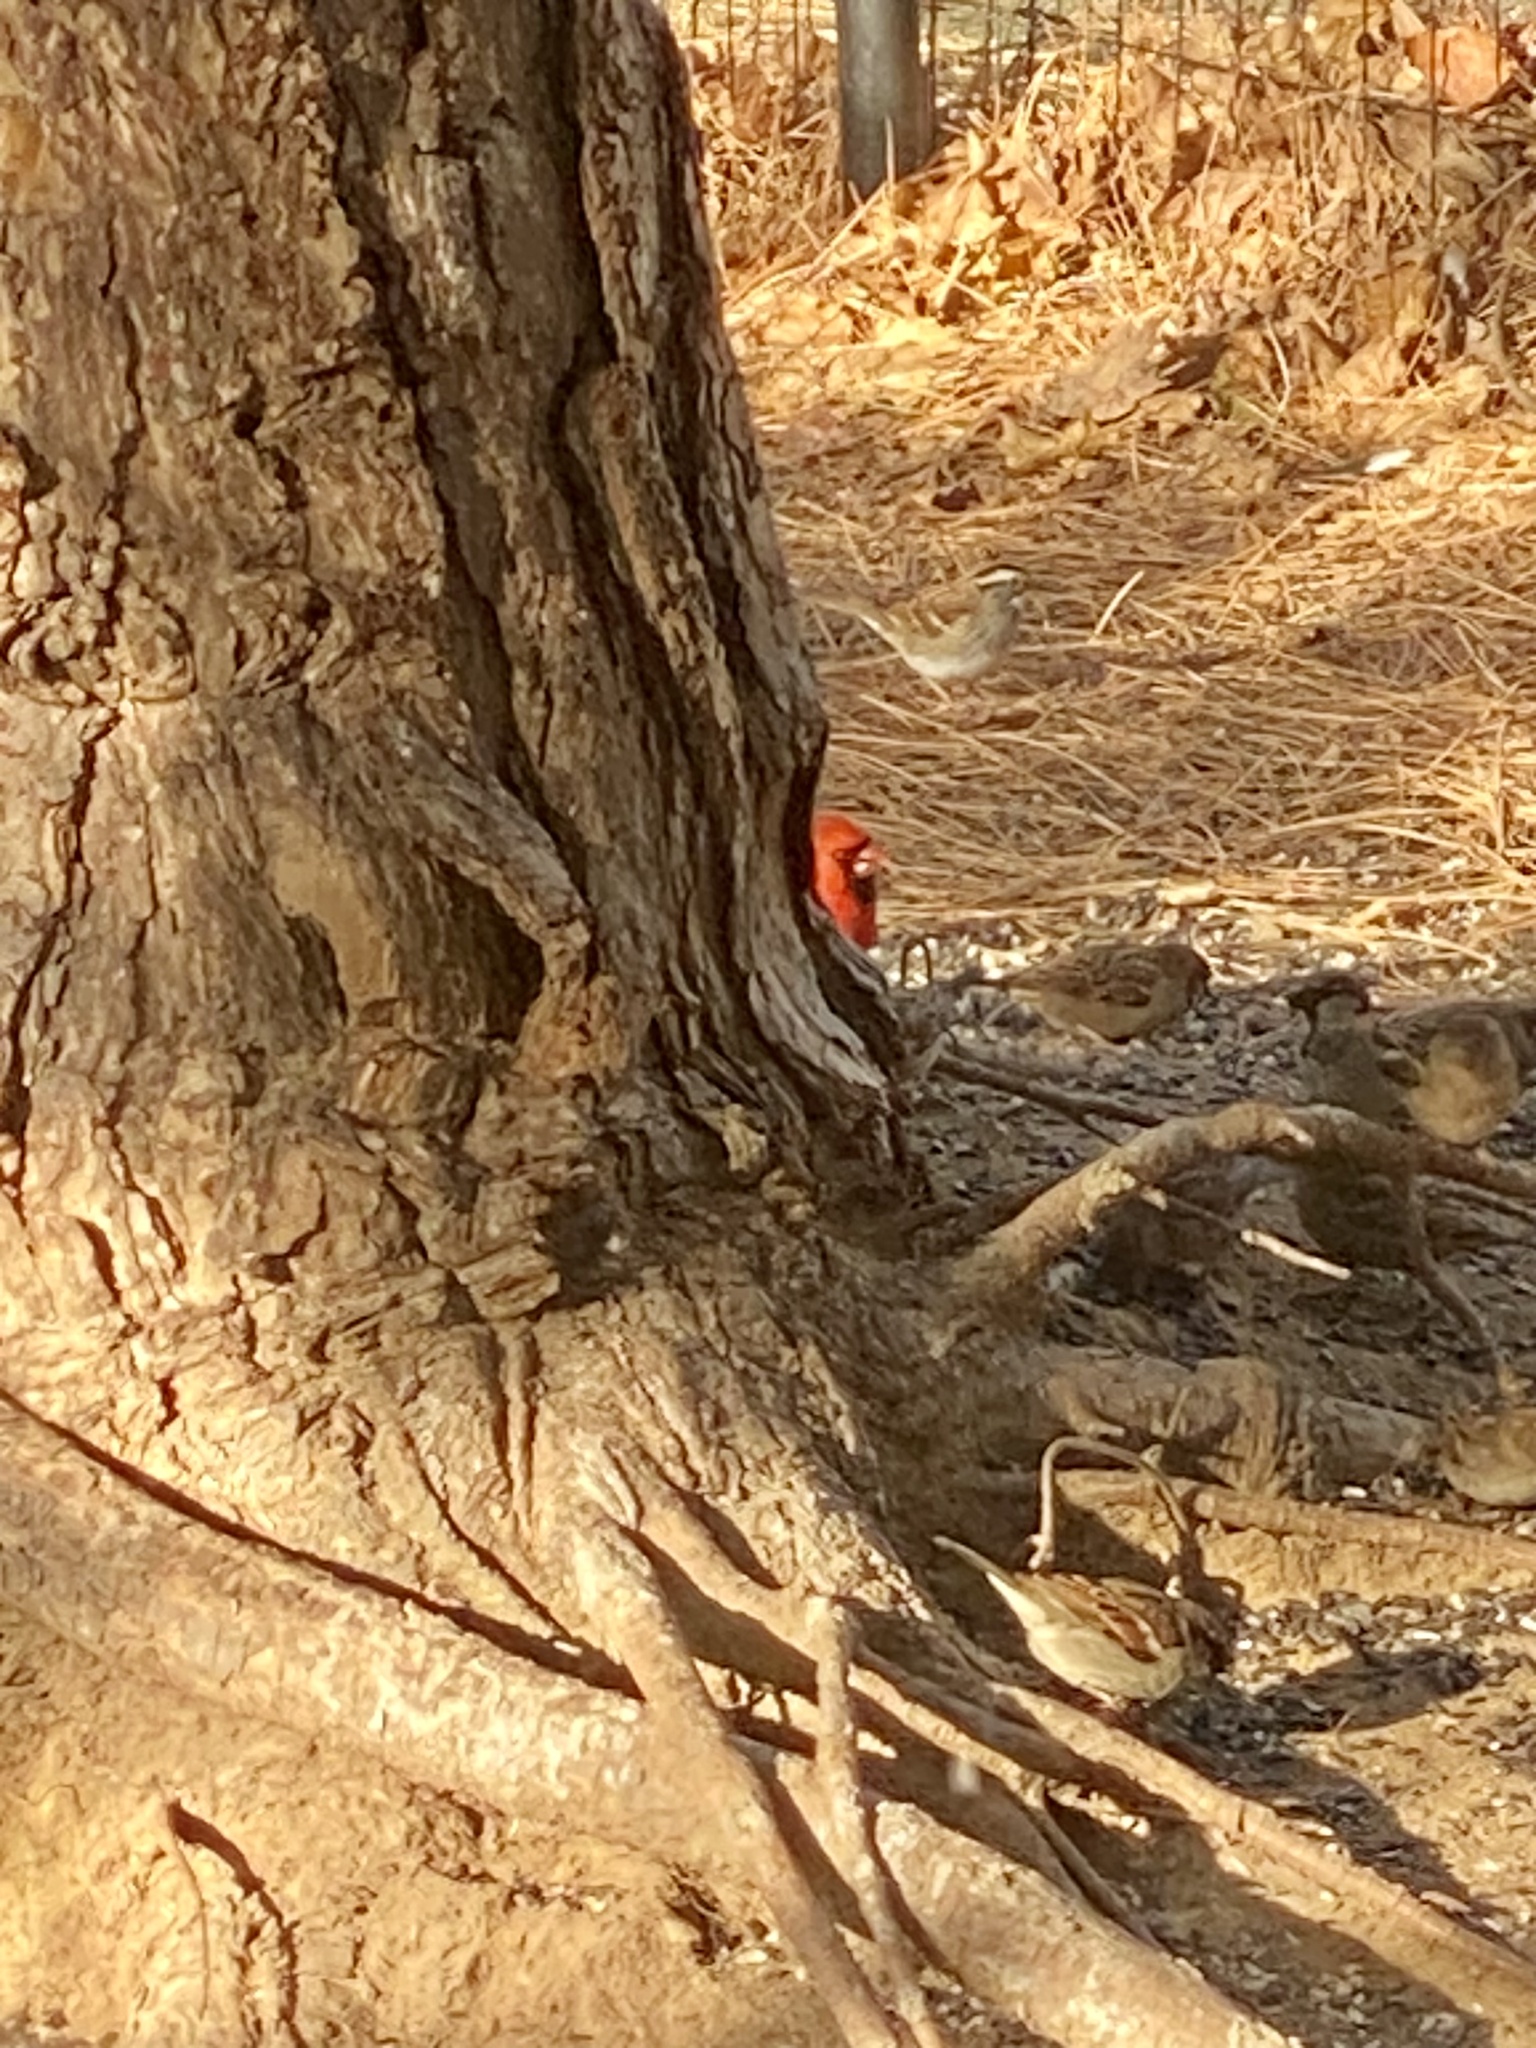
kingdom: Animalia
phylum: Chordata
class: Aves
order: Passeriformes
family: Cardinalidae
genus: Cardinalis
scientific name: Cardinalis cardinalis
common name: Northern cardinal
